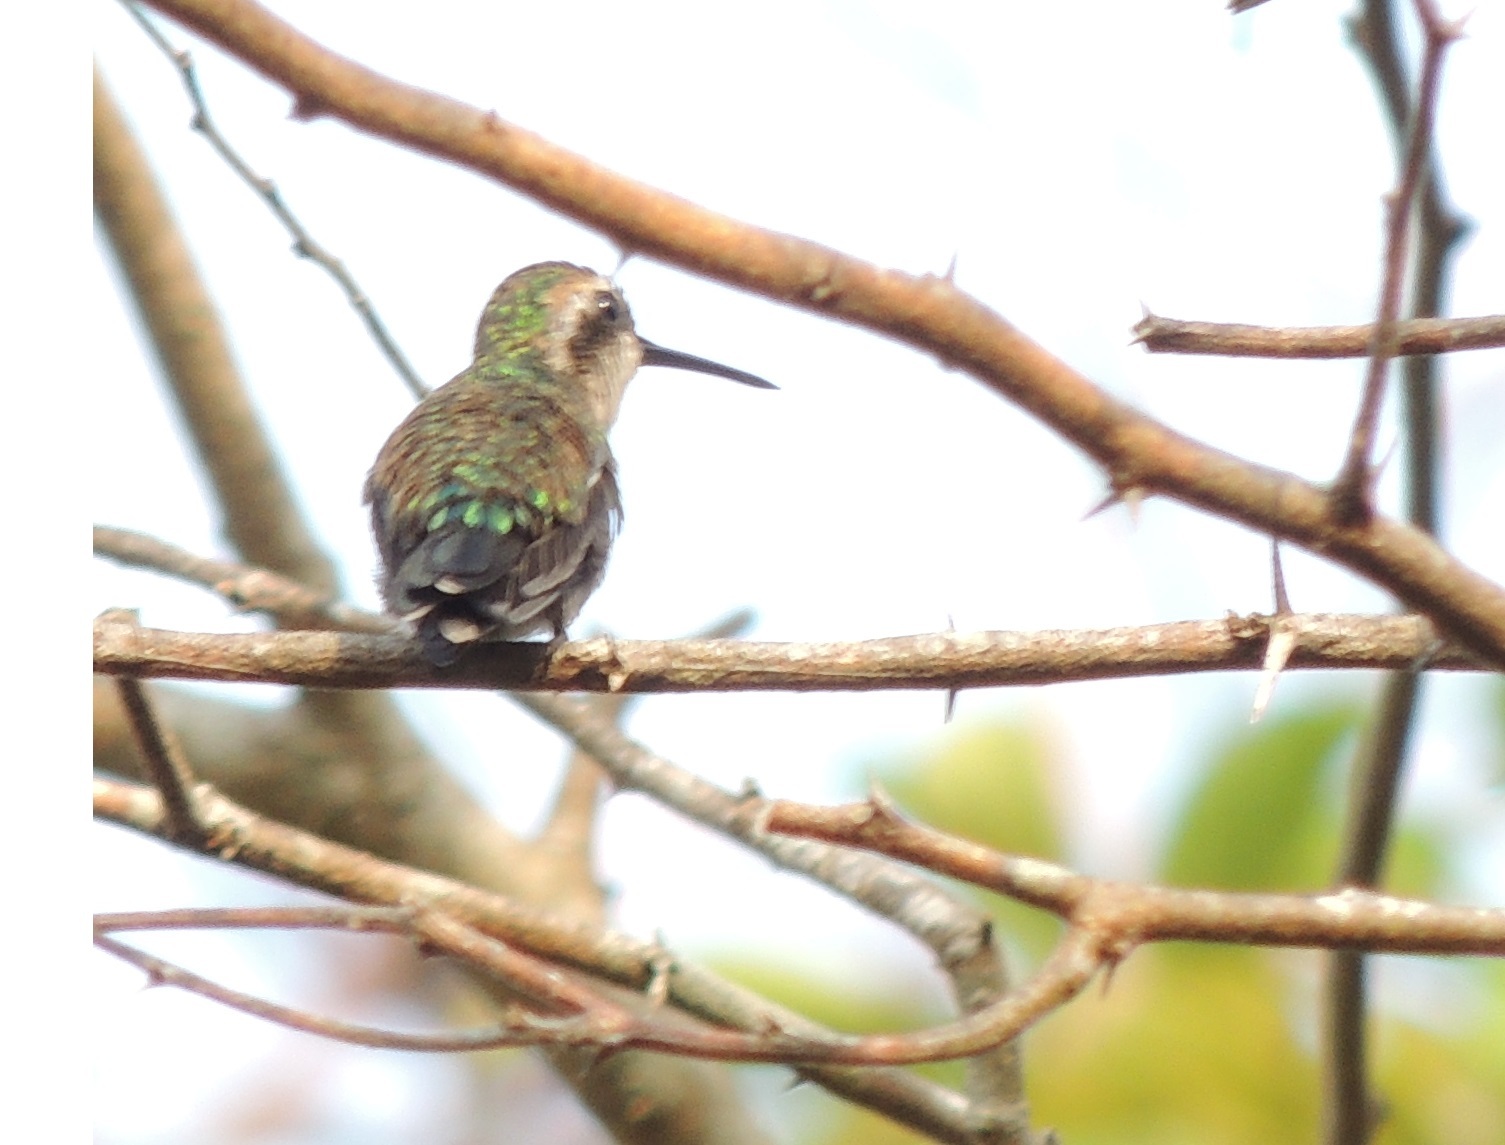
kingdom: Animalia
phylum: Chordata
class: Aves
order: Apodiformes
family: Trochilidae
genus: Chlorostilbon
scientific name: Chlorostilbon gibsoni
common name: Red-billed emerald
